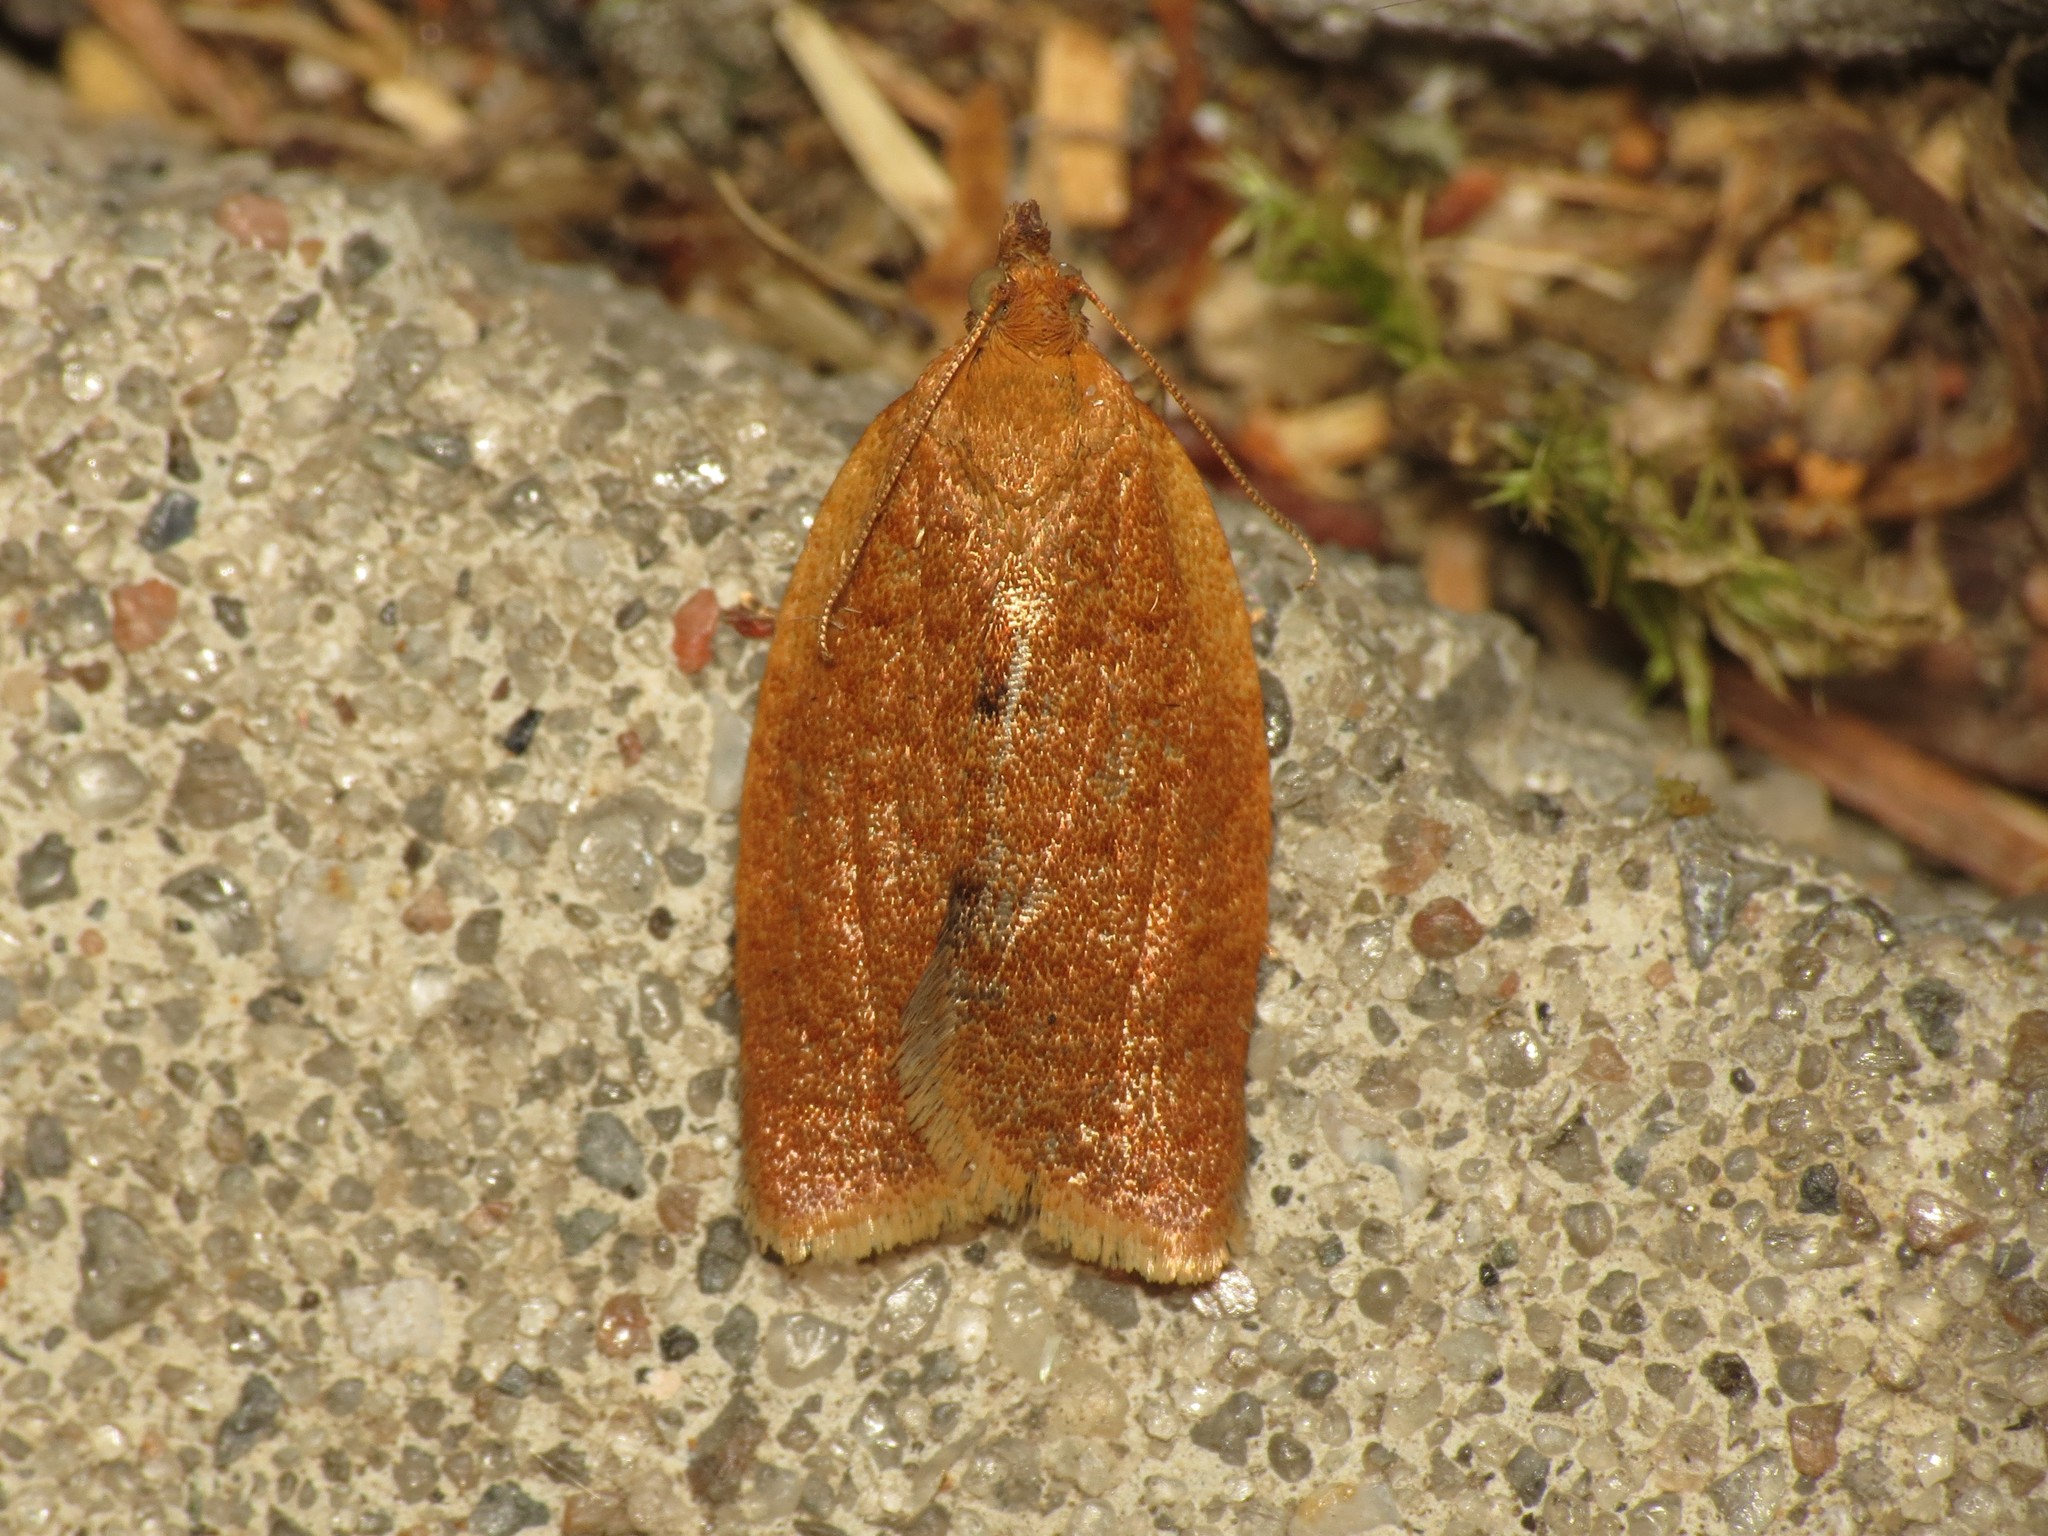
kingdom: Animalia
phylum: Arthropoda
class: Insecta
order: Lepidoptera
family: Tortricidae
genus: Clepsis
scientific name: Clepsis consimilana
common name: Privet tortrix
